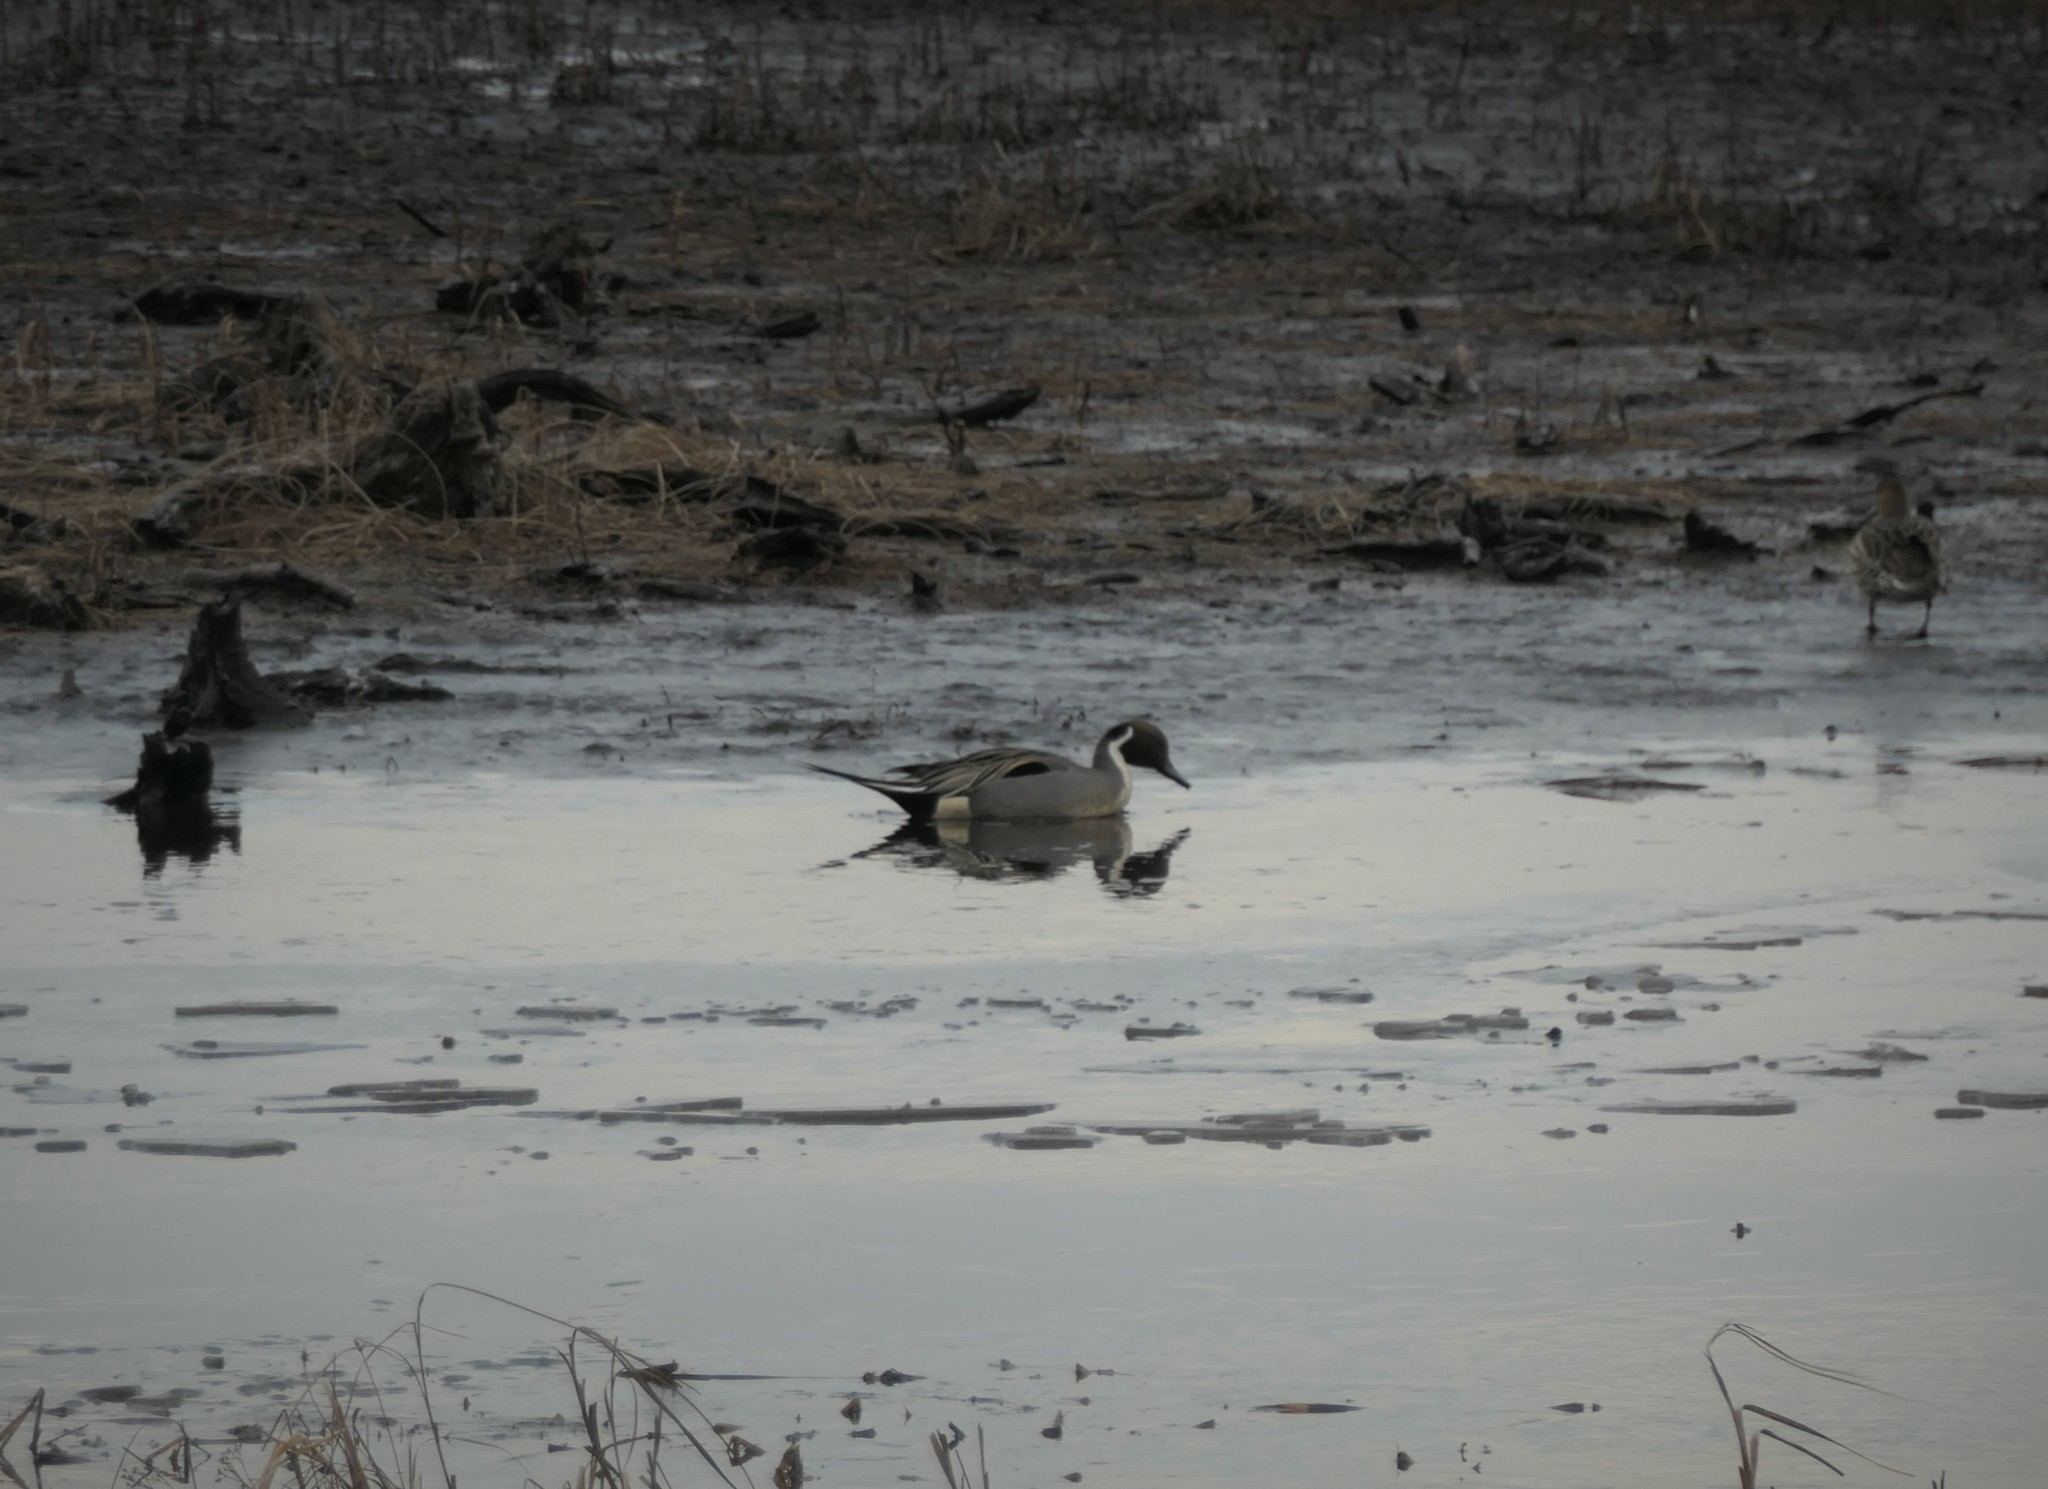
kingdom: Animalia
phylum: Chordata
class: Aves
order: Anseriformes
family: Anatidae
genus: Anas
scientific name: Anas acuta
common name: Northern pintail
